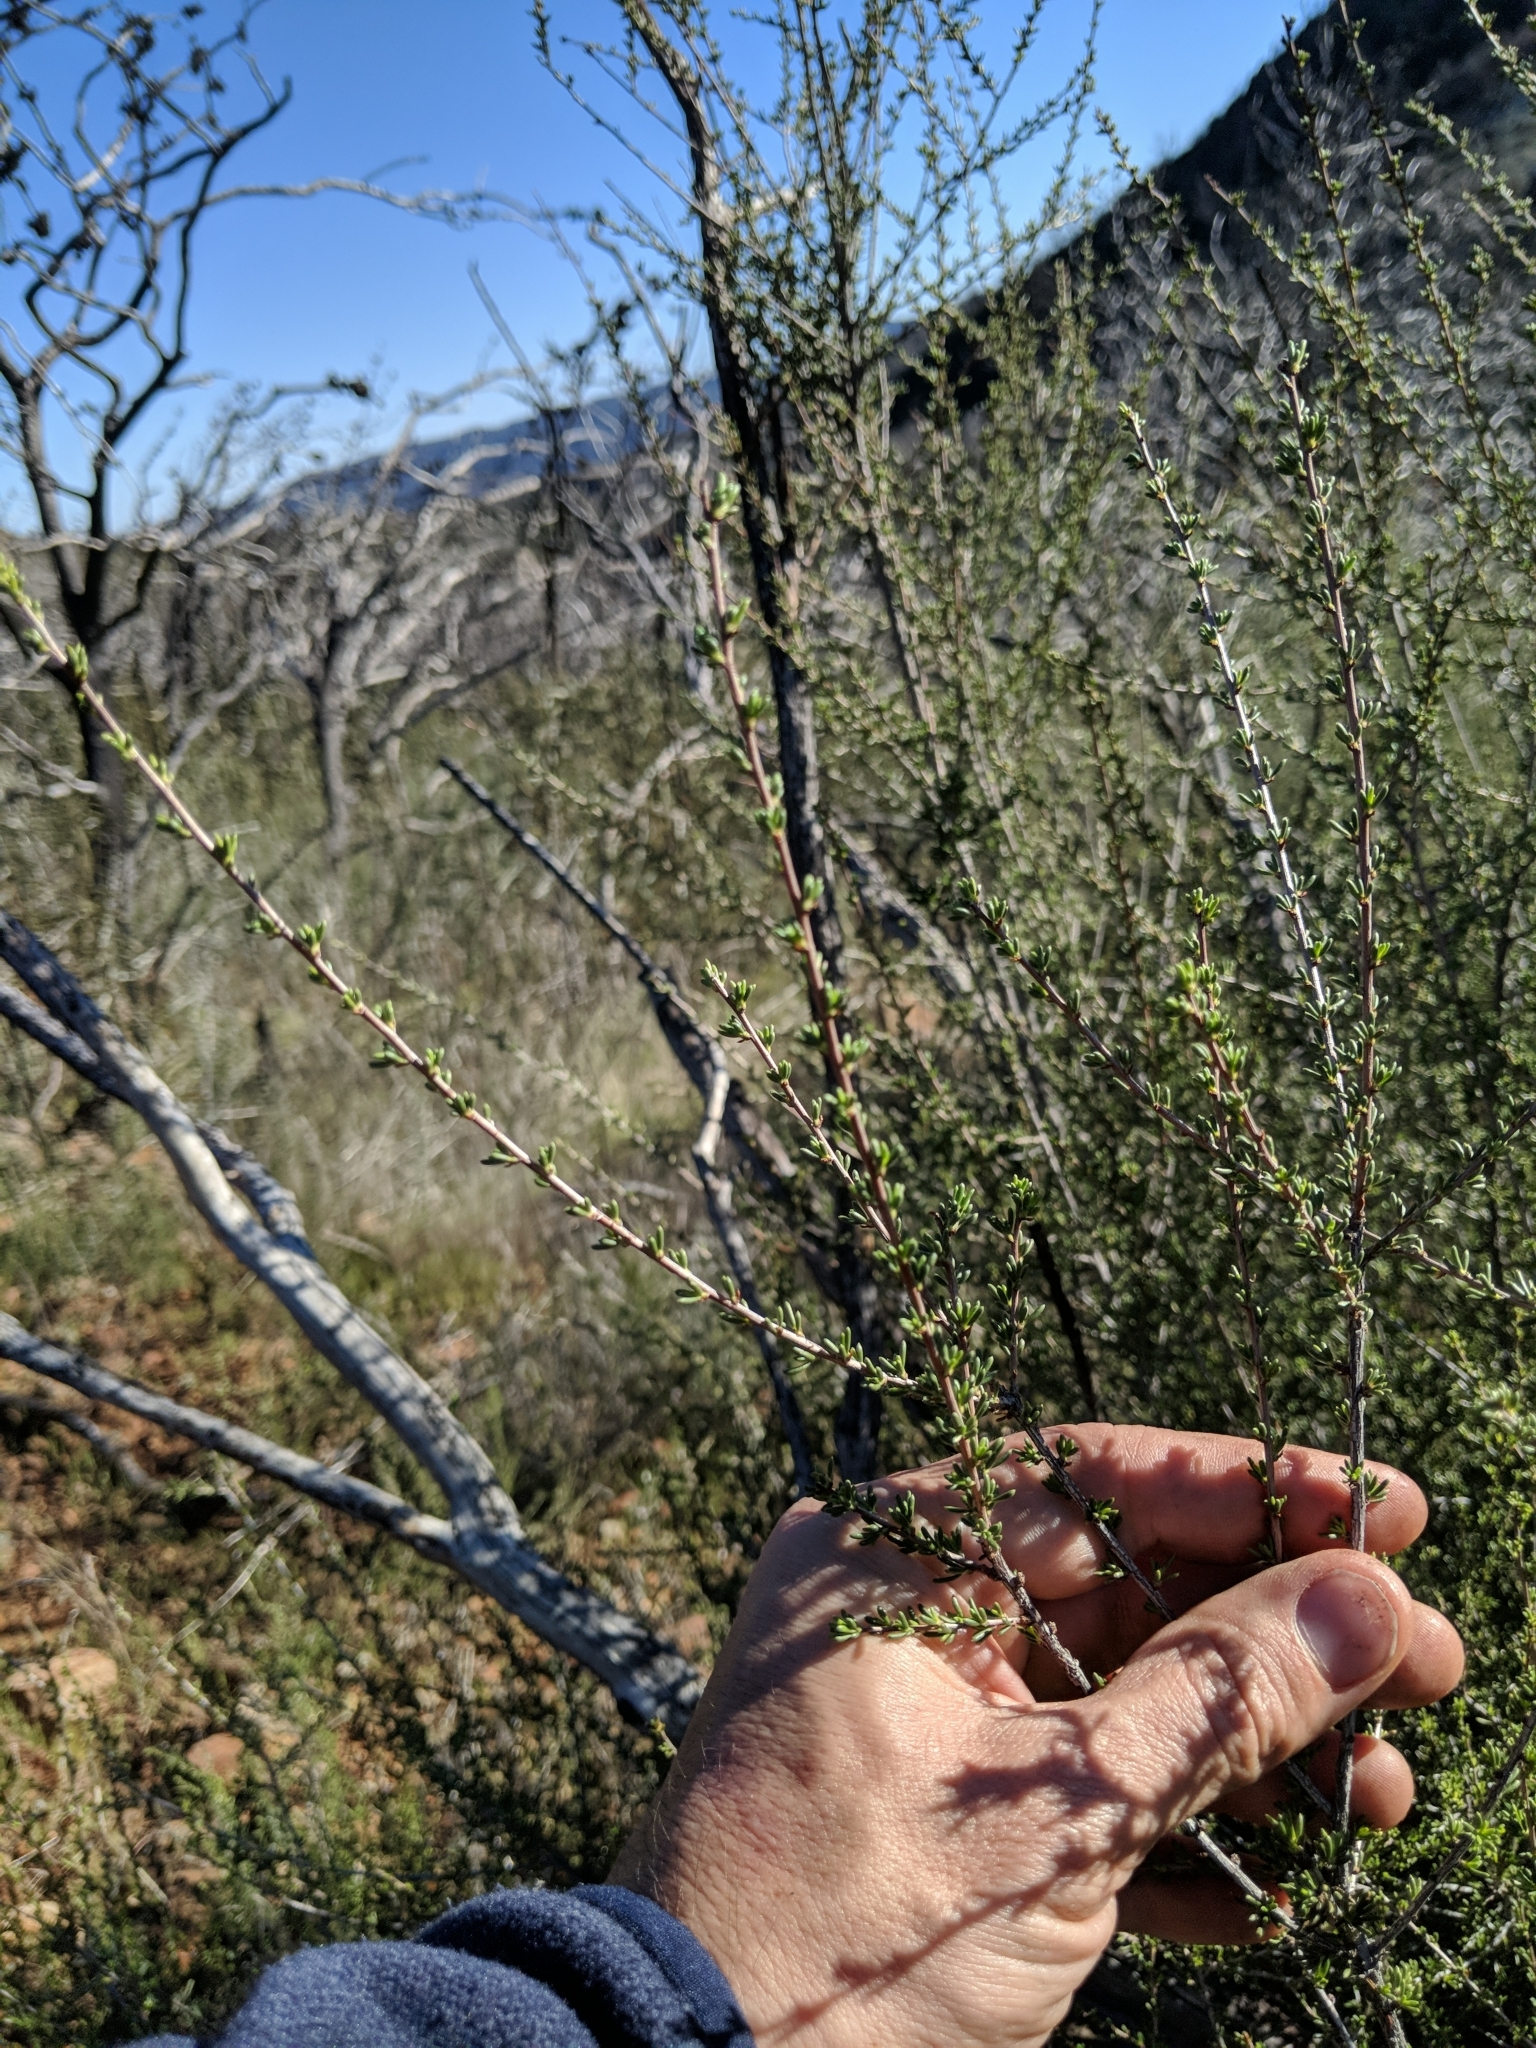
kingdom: Plantae
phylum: Tracheophyta
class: Magnoliopsida
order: Rosales
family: Rosaceae
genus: Adenostoma
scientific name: Adenostoma fasciculatum
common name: Chamise
